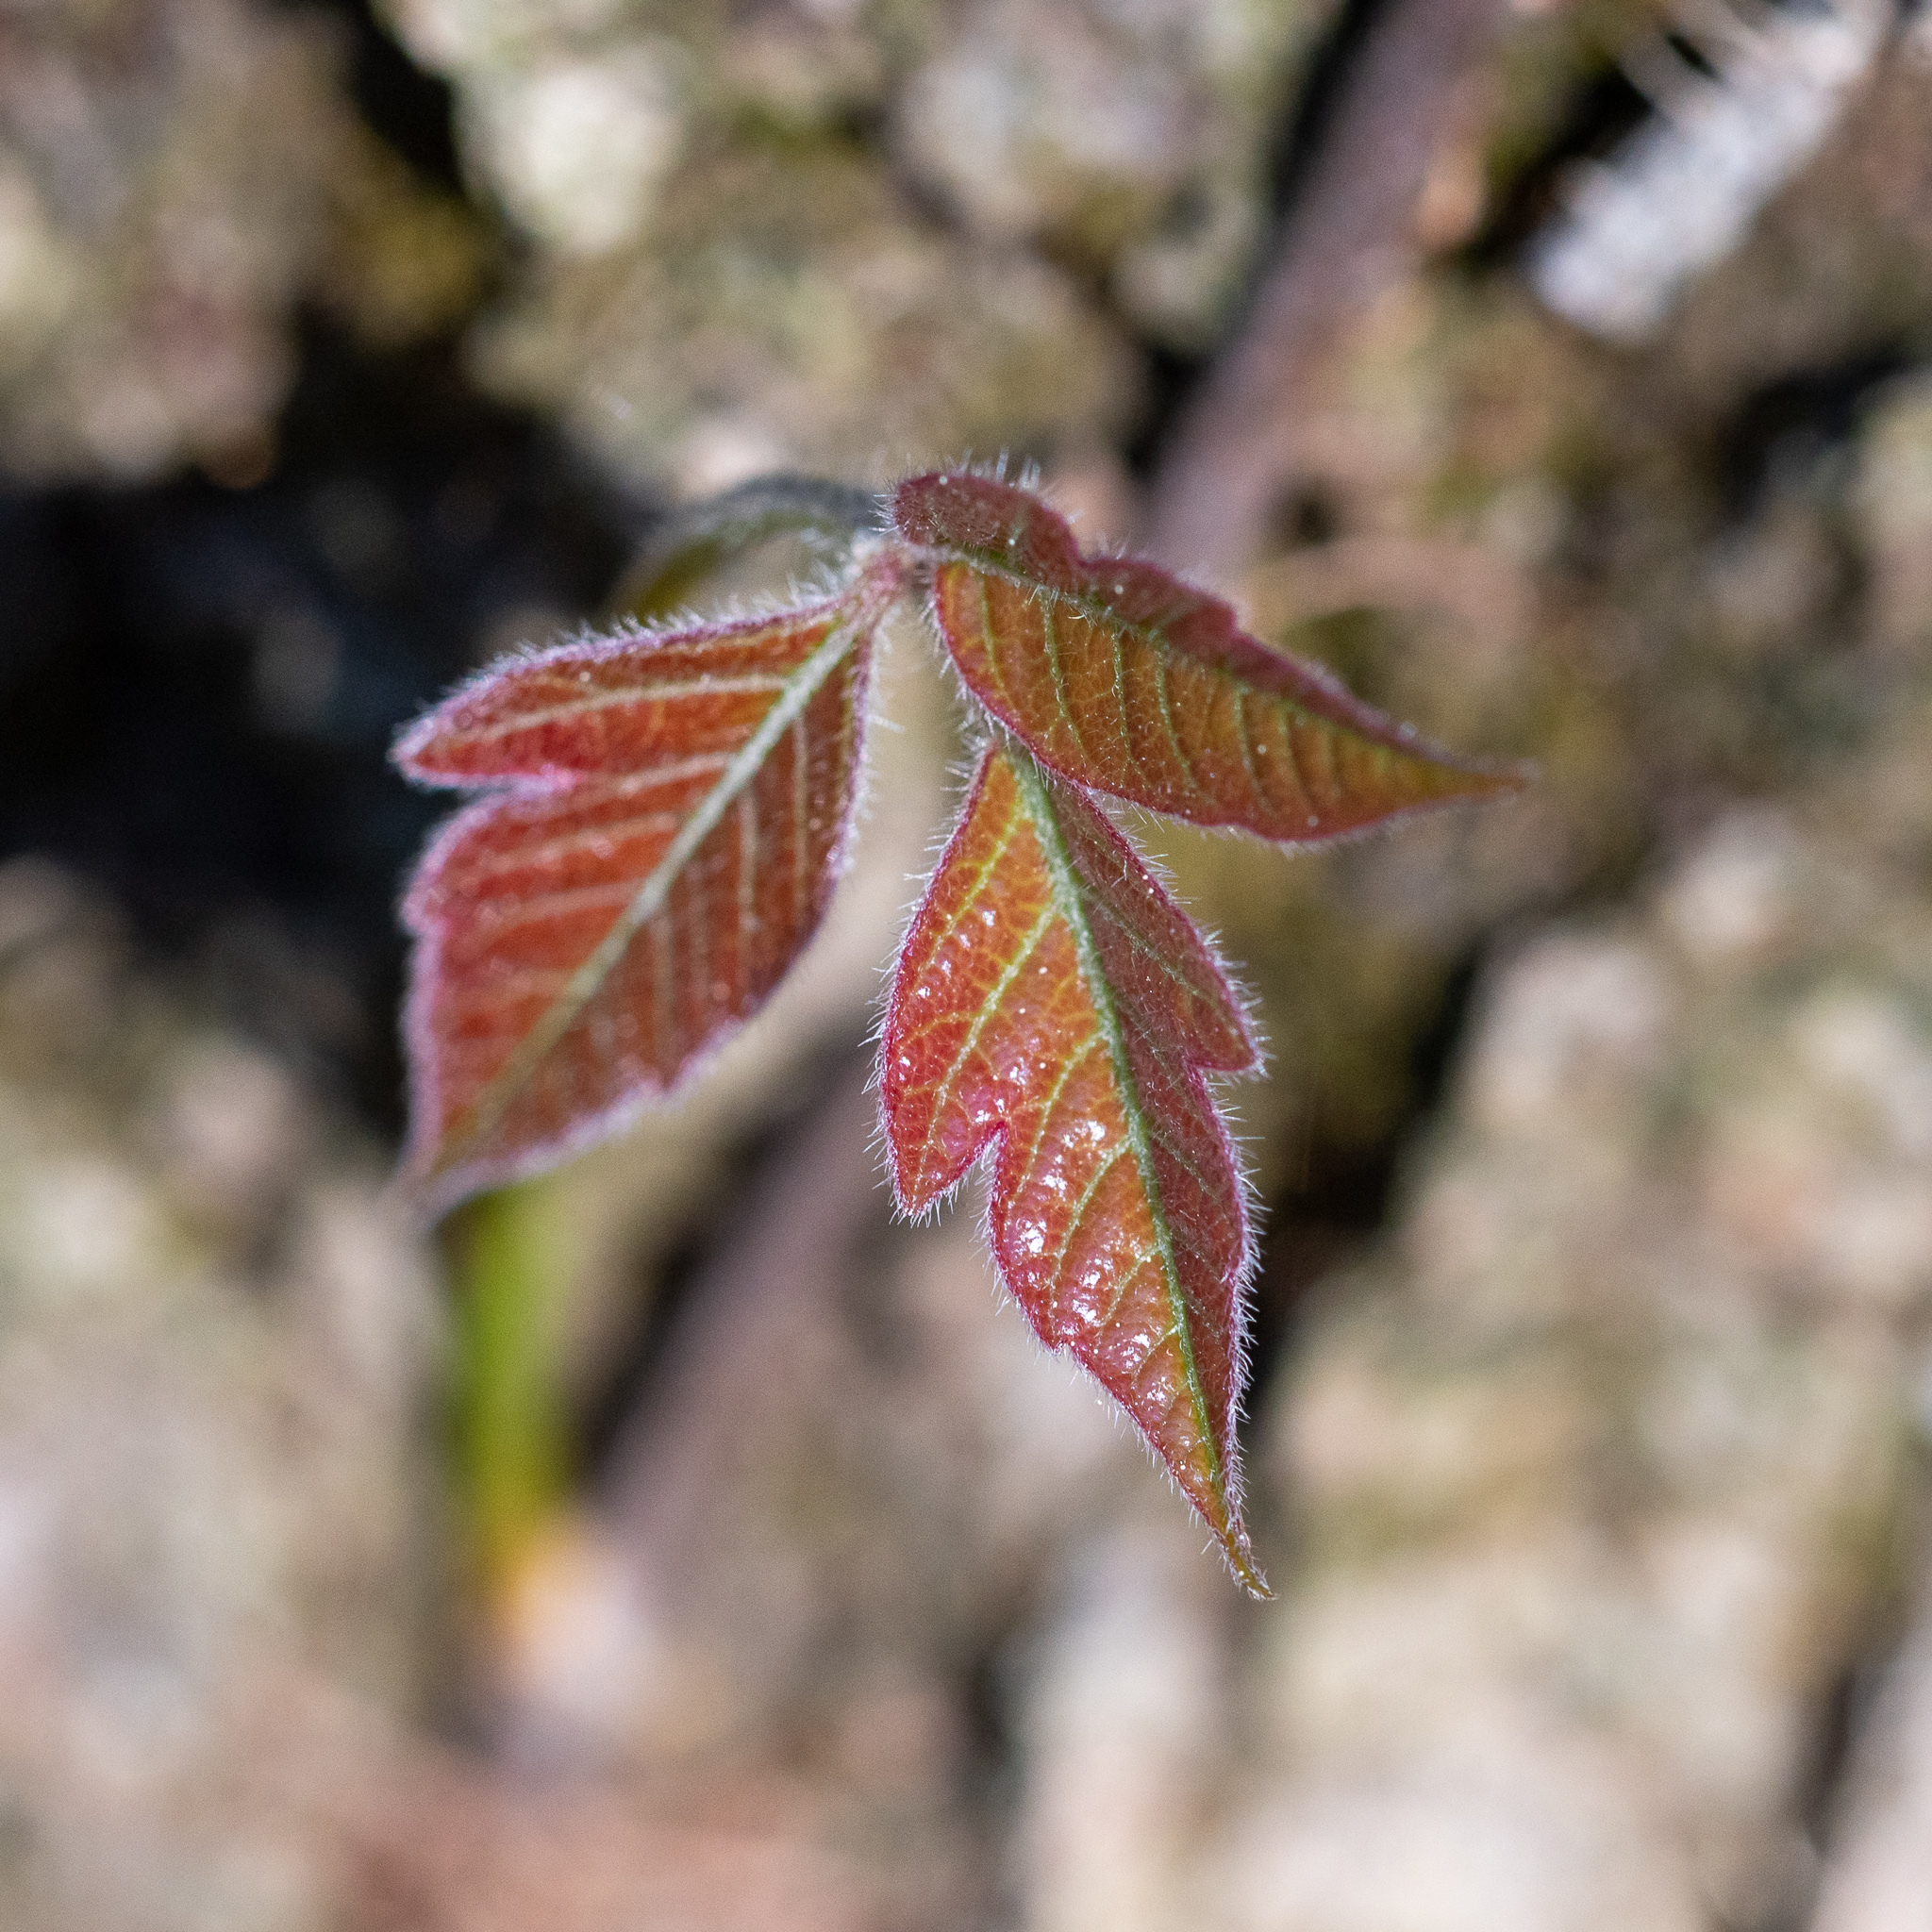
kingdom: Plantae
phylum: Tracheophyta
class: Magnoliopsida
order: Sapindales
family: Anacardiaceae
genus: Toxicodendron
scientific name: Toxicodendron radicans
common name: Poison ivy
